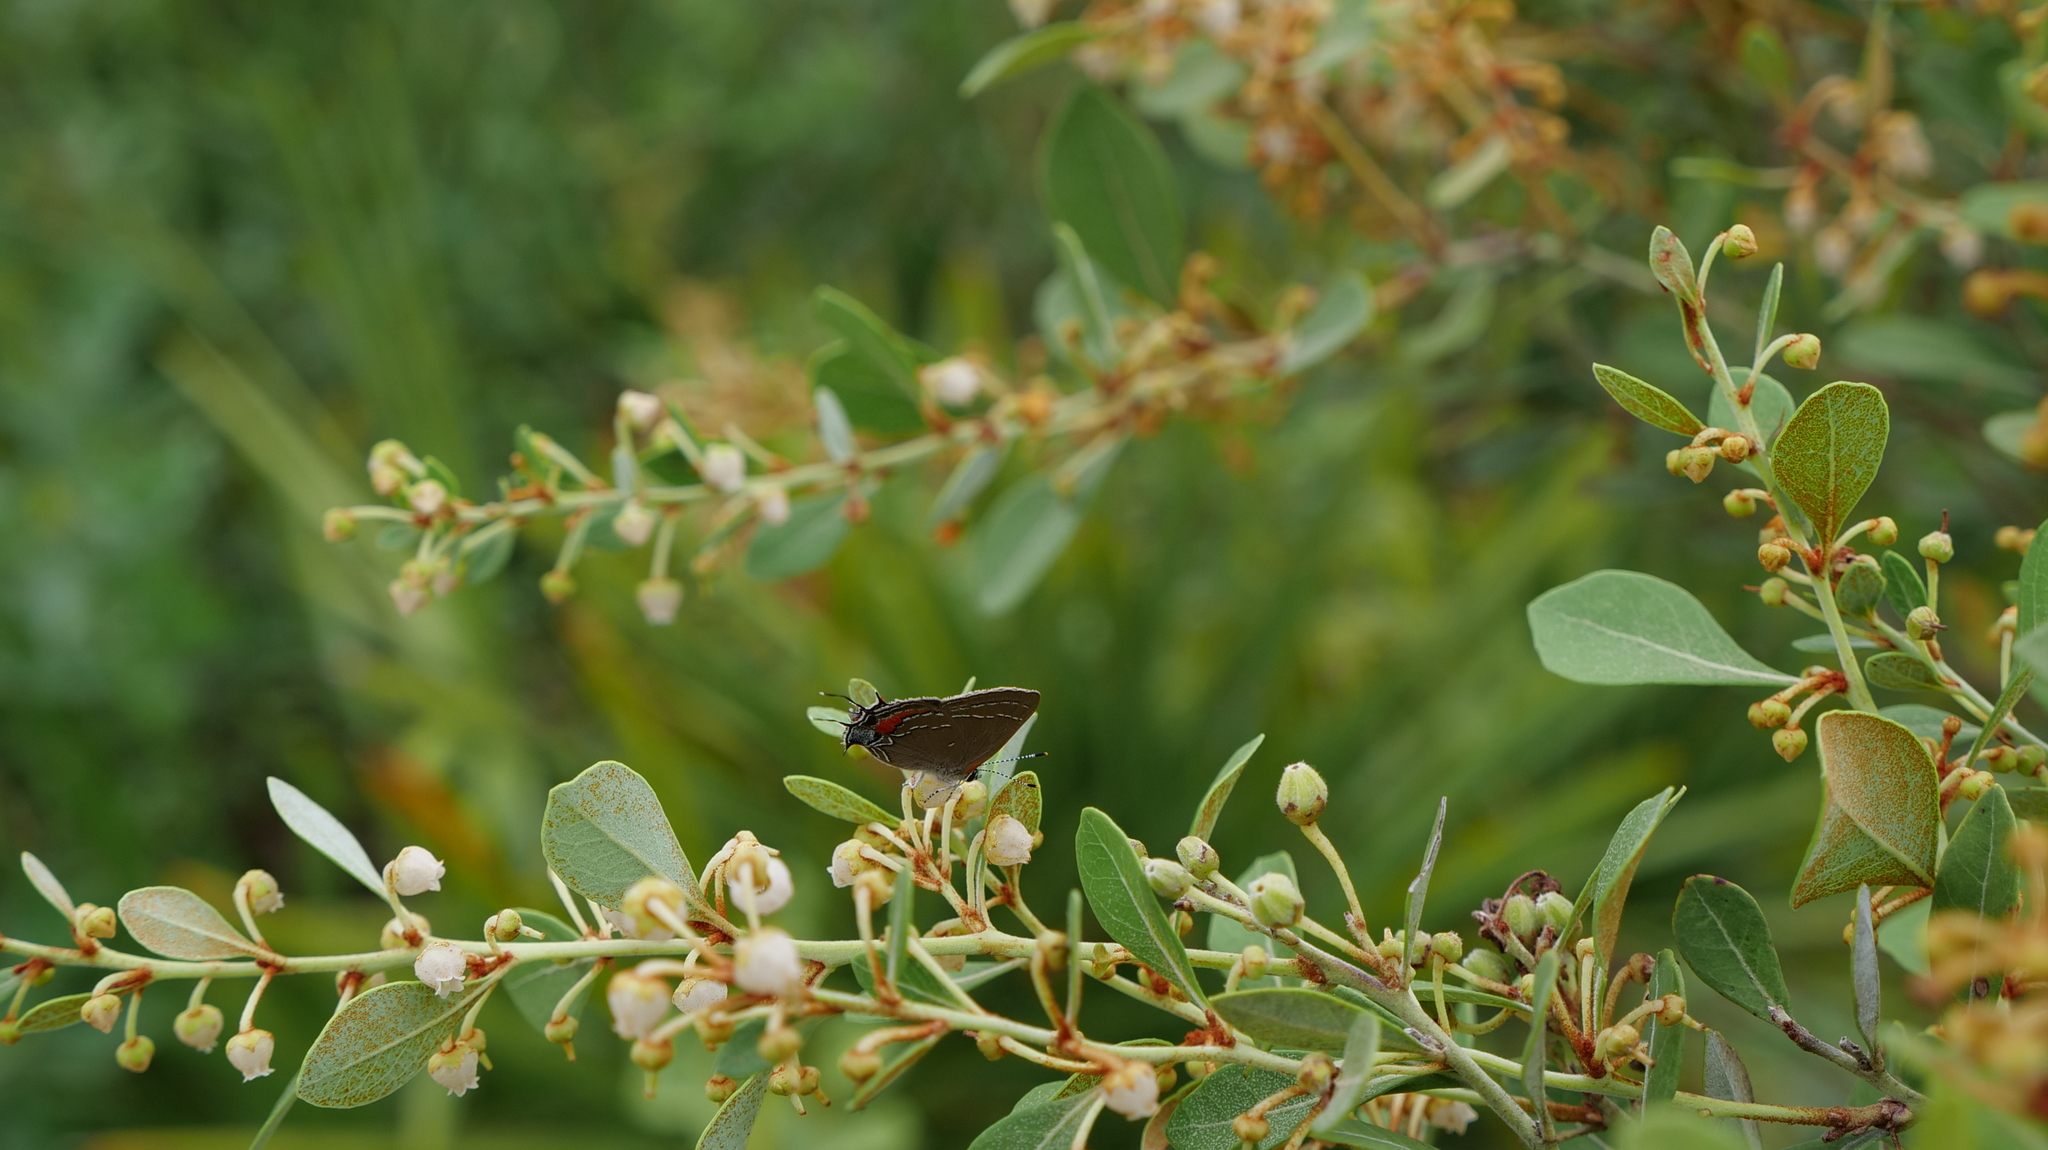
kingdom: Animalia
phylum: Arthropoda
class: Insecta
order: Lepidoptera
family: Lycaenidae
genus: Fixsenia
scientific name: Fixsenia favonius
